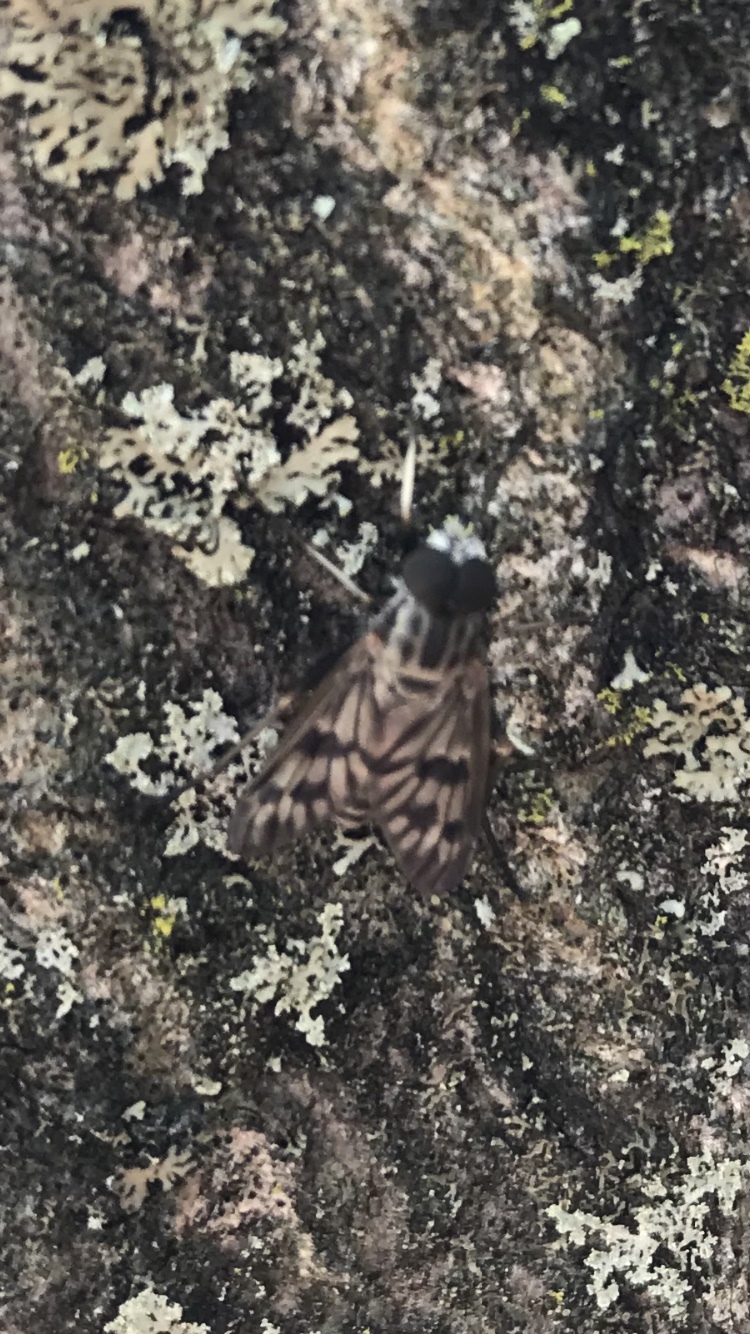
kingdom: Animalia
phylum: Arthropoda
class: Insecta
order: Diptera
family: Rhagionidae
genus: Rhagio
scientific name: Rhagio mystaceus
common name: Common snipe fly
